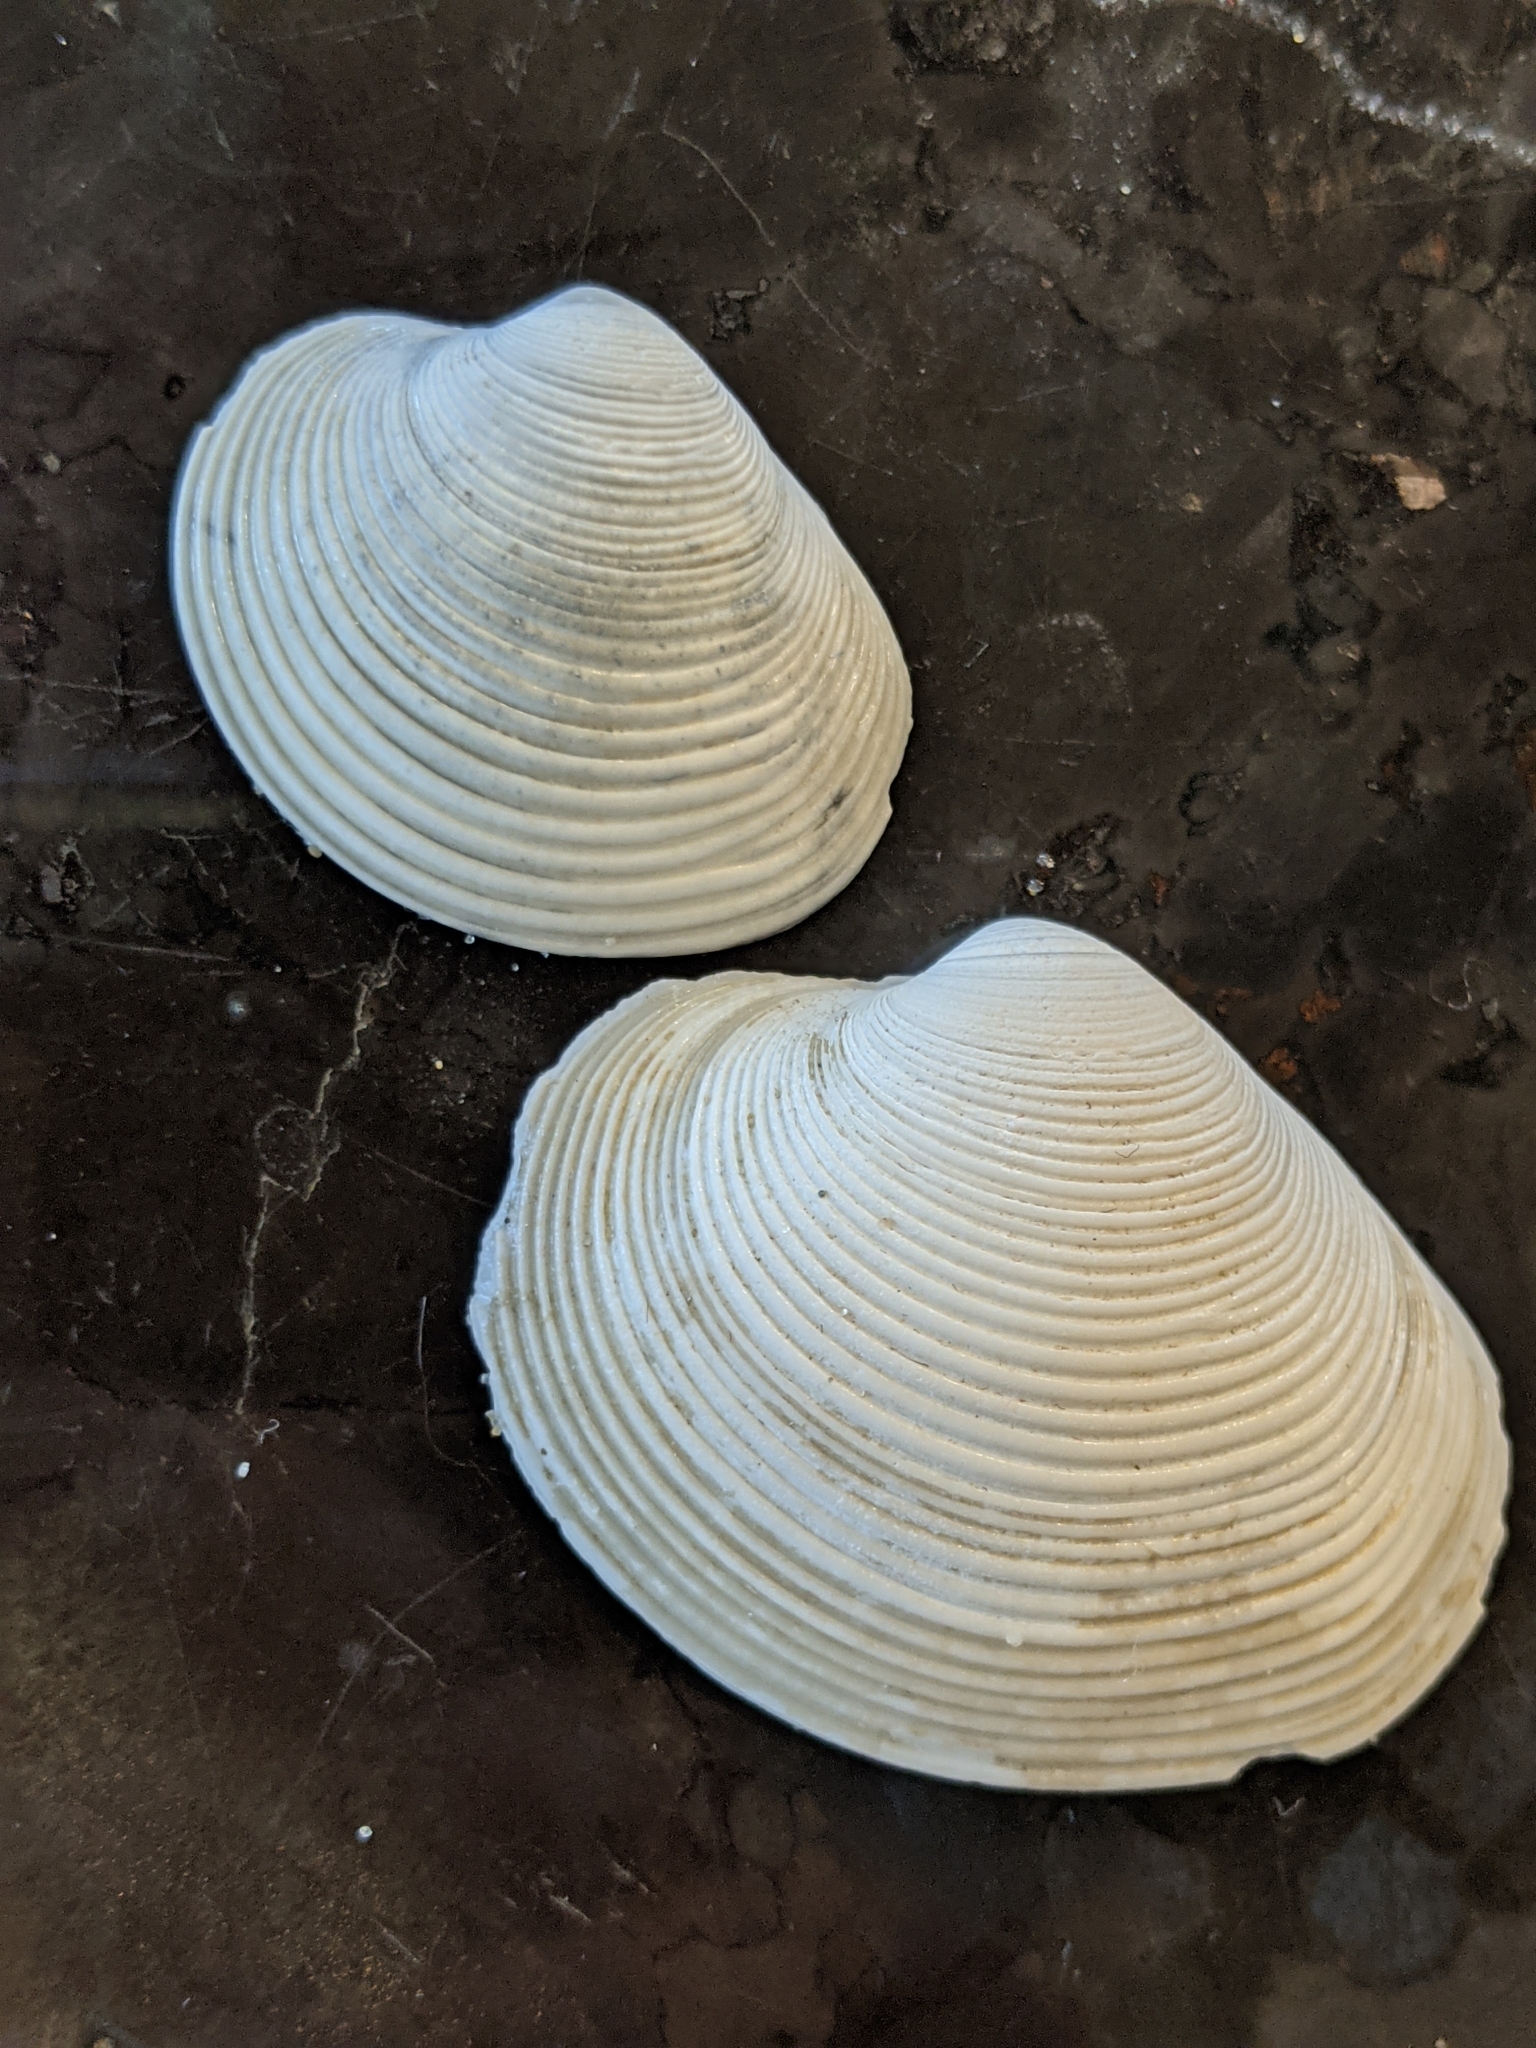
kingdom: Animalia
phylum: Mollusca
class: Bivalvia
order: Venerida
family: Veneridae
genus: Amiantis
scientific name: Amiantis callosa
